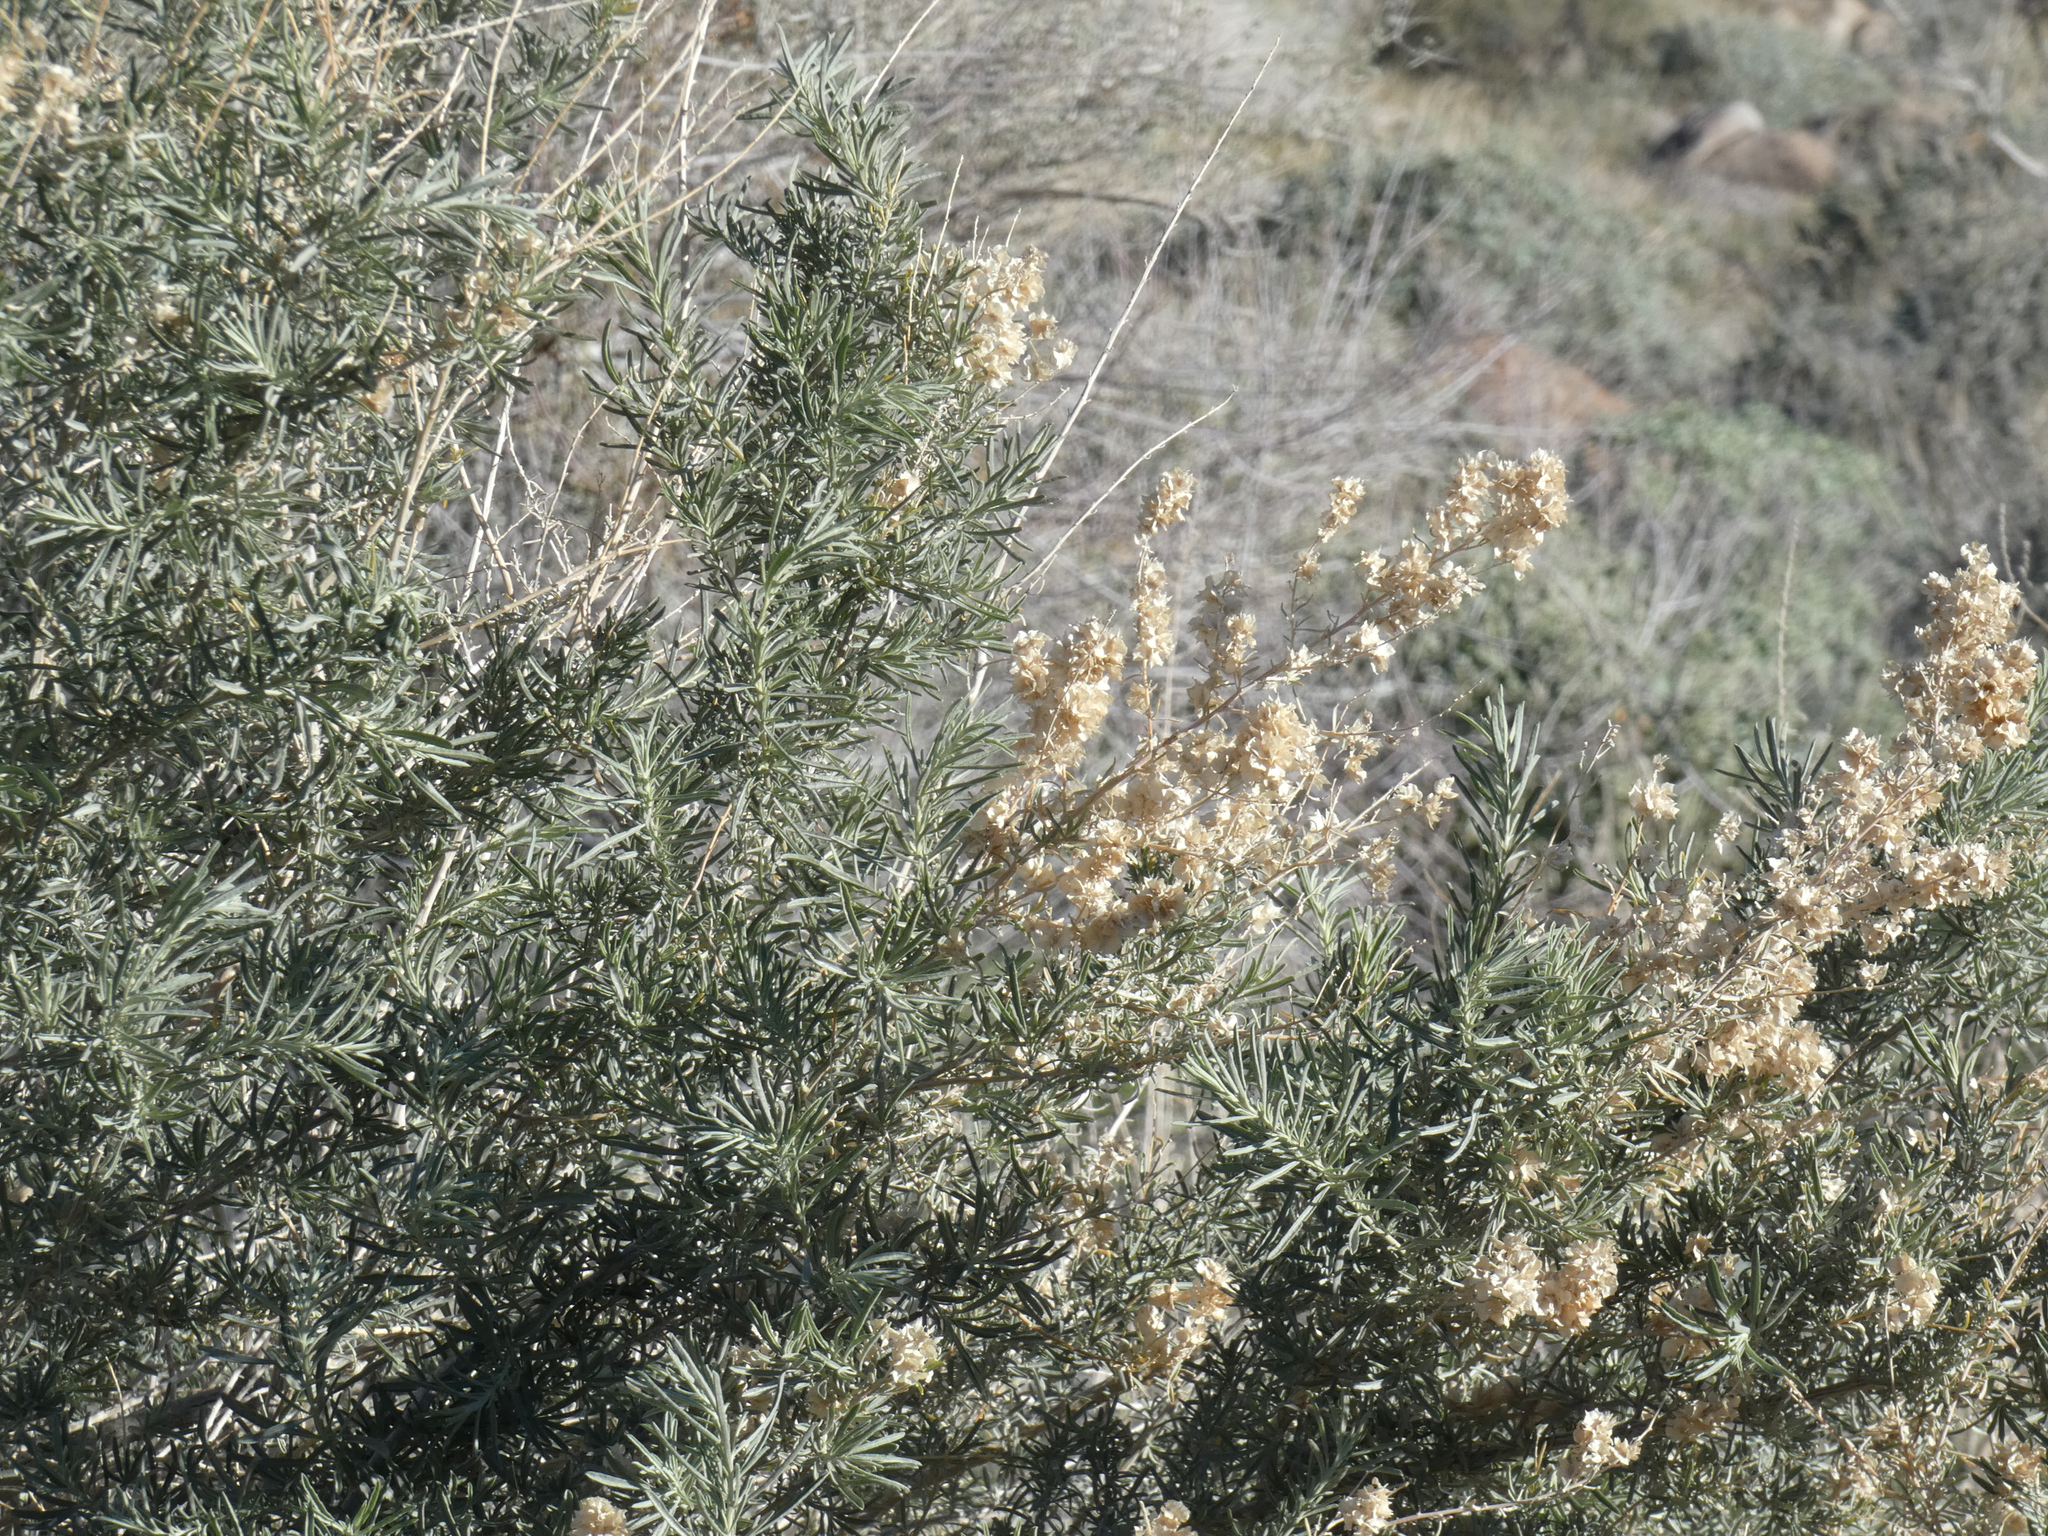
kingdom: Plantae
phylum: Tracheophyta
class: Magnoliopsida
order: Caryophyllales
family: Amaranthaceae
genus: Atriplex
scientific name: Atriplex canescens
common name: Four-wing saltbush
